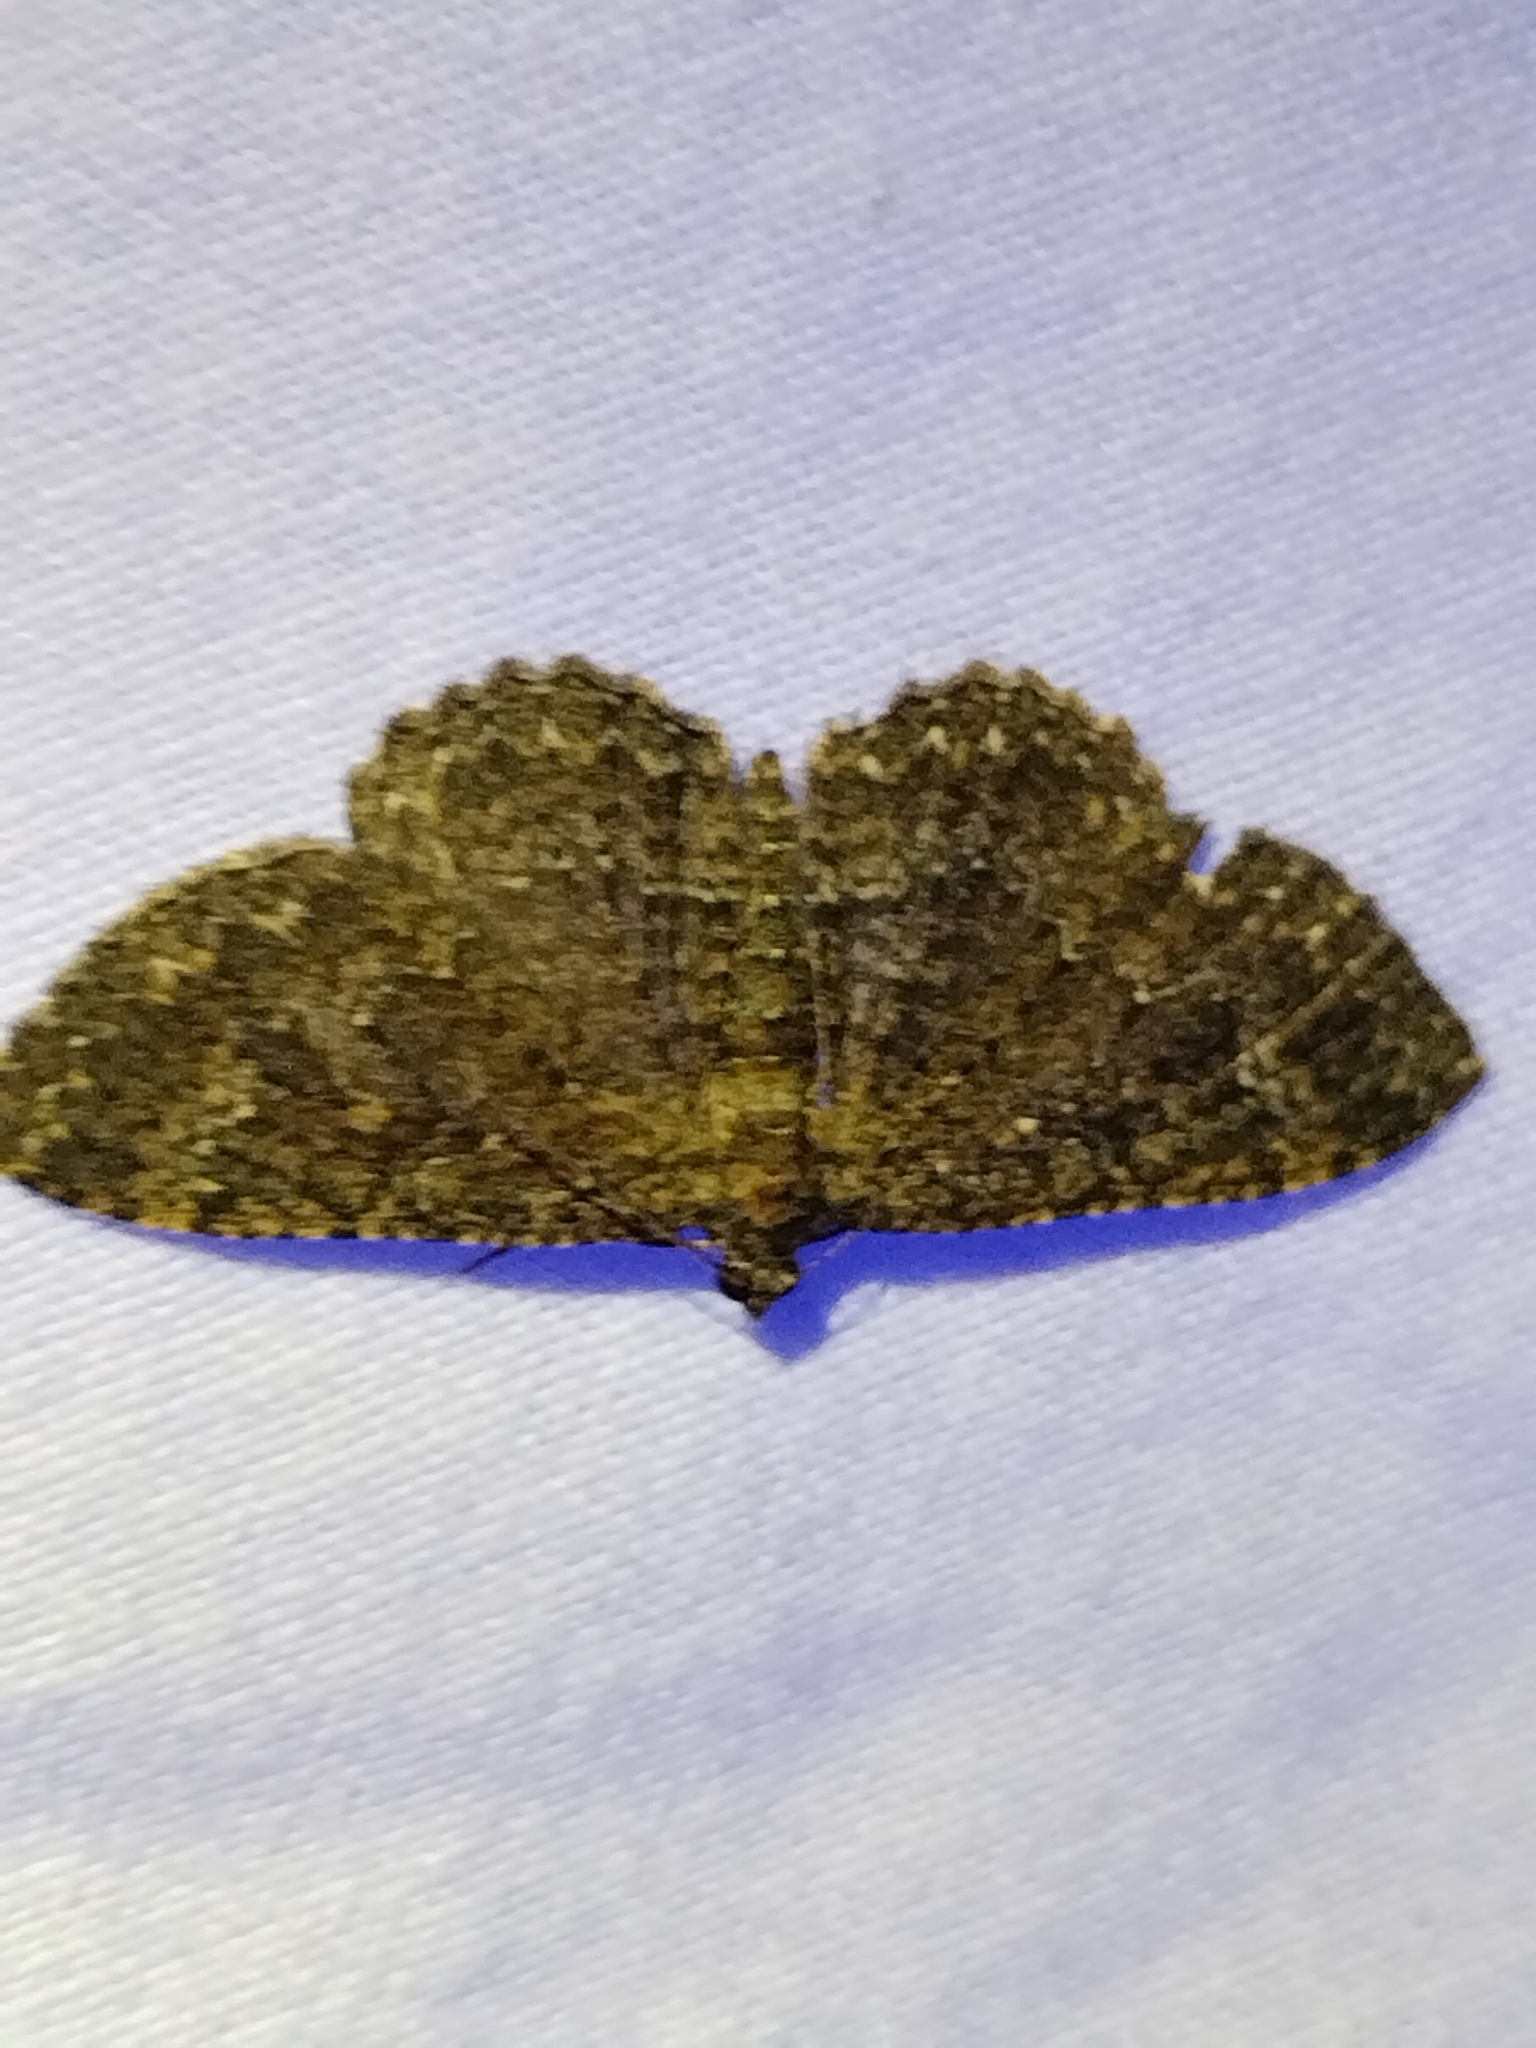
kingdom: Animalia
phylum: Arthropoda
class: Insecta
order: Lepidoptera
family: Geometridae
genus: Disclisioprocta
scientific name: Disclisioprocta stellata
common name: Somber carpet
